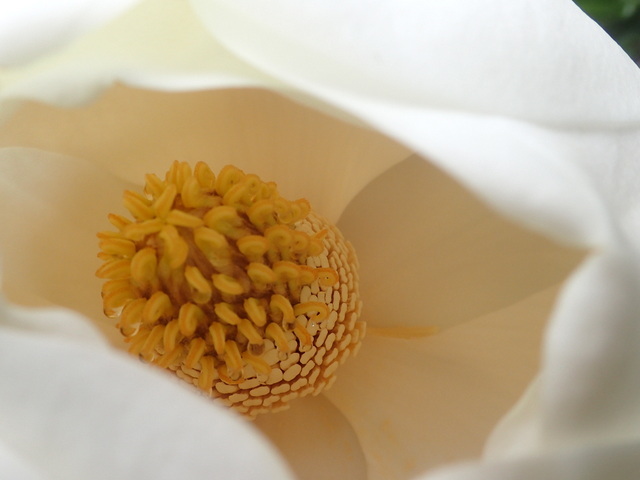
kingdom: Plantae
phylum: Tracheophyta
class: Magnoliopsida
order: Magnoliales
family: Magnoliaceae
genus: Magnolia
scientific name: Magnolia grandiflora
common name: Southern magnolia
